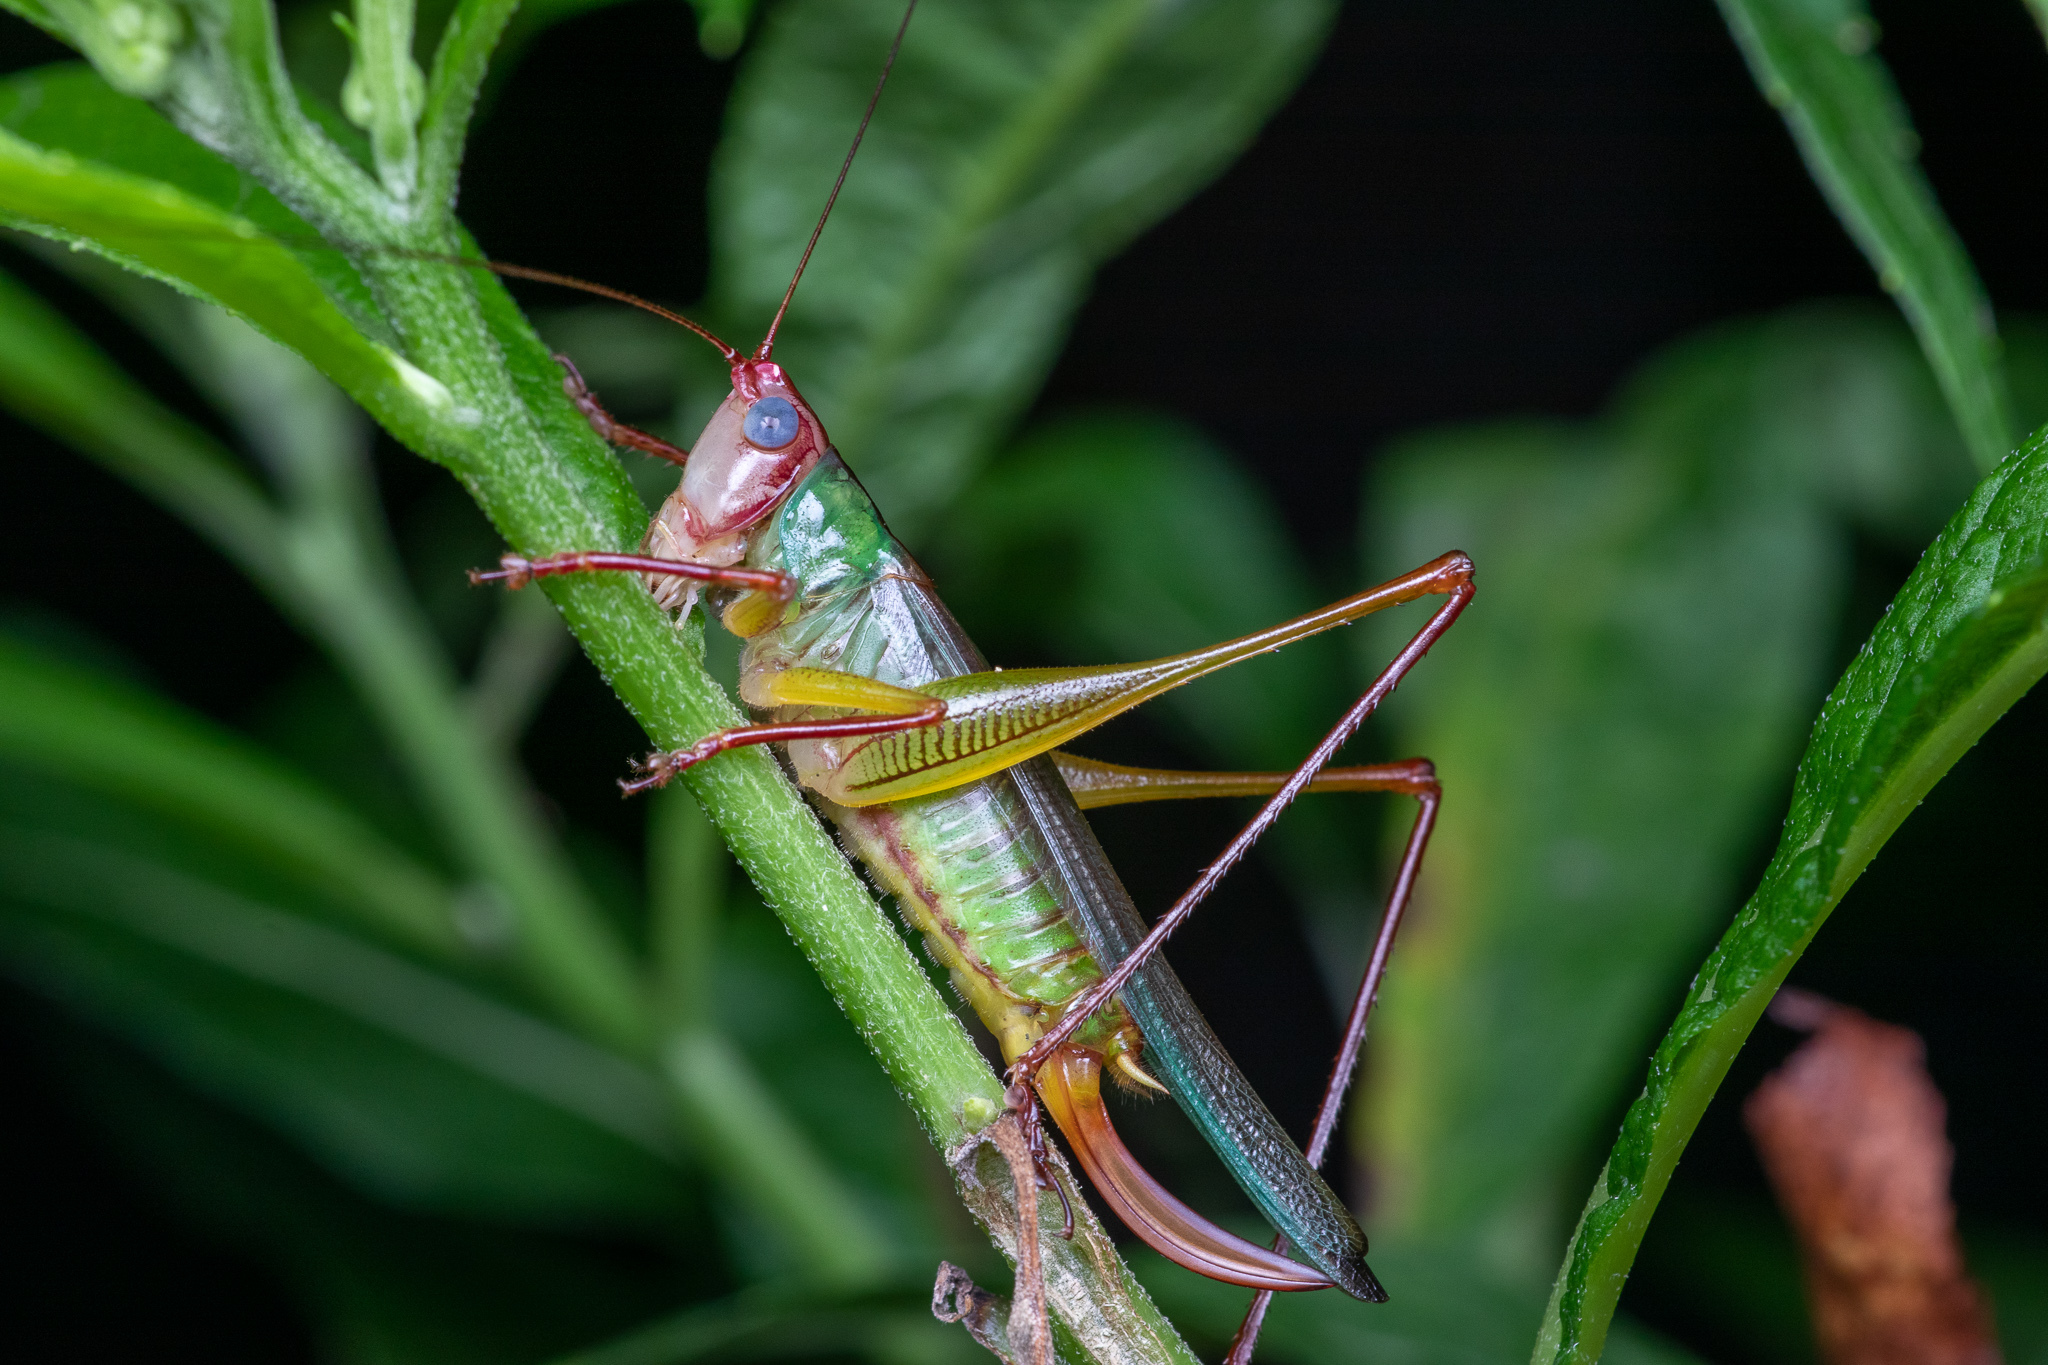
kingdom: Animalia
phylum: Arthropoda
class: Insecta
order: Orthoptera
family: Tettigoniidae
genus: Orchelimum
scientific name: Orchelimum pulchellum
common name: Handsome meadow katydid
